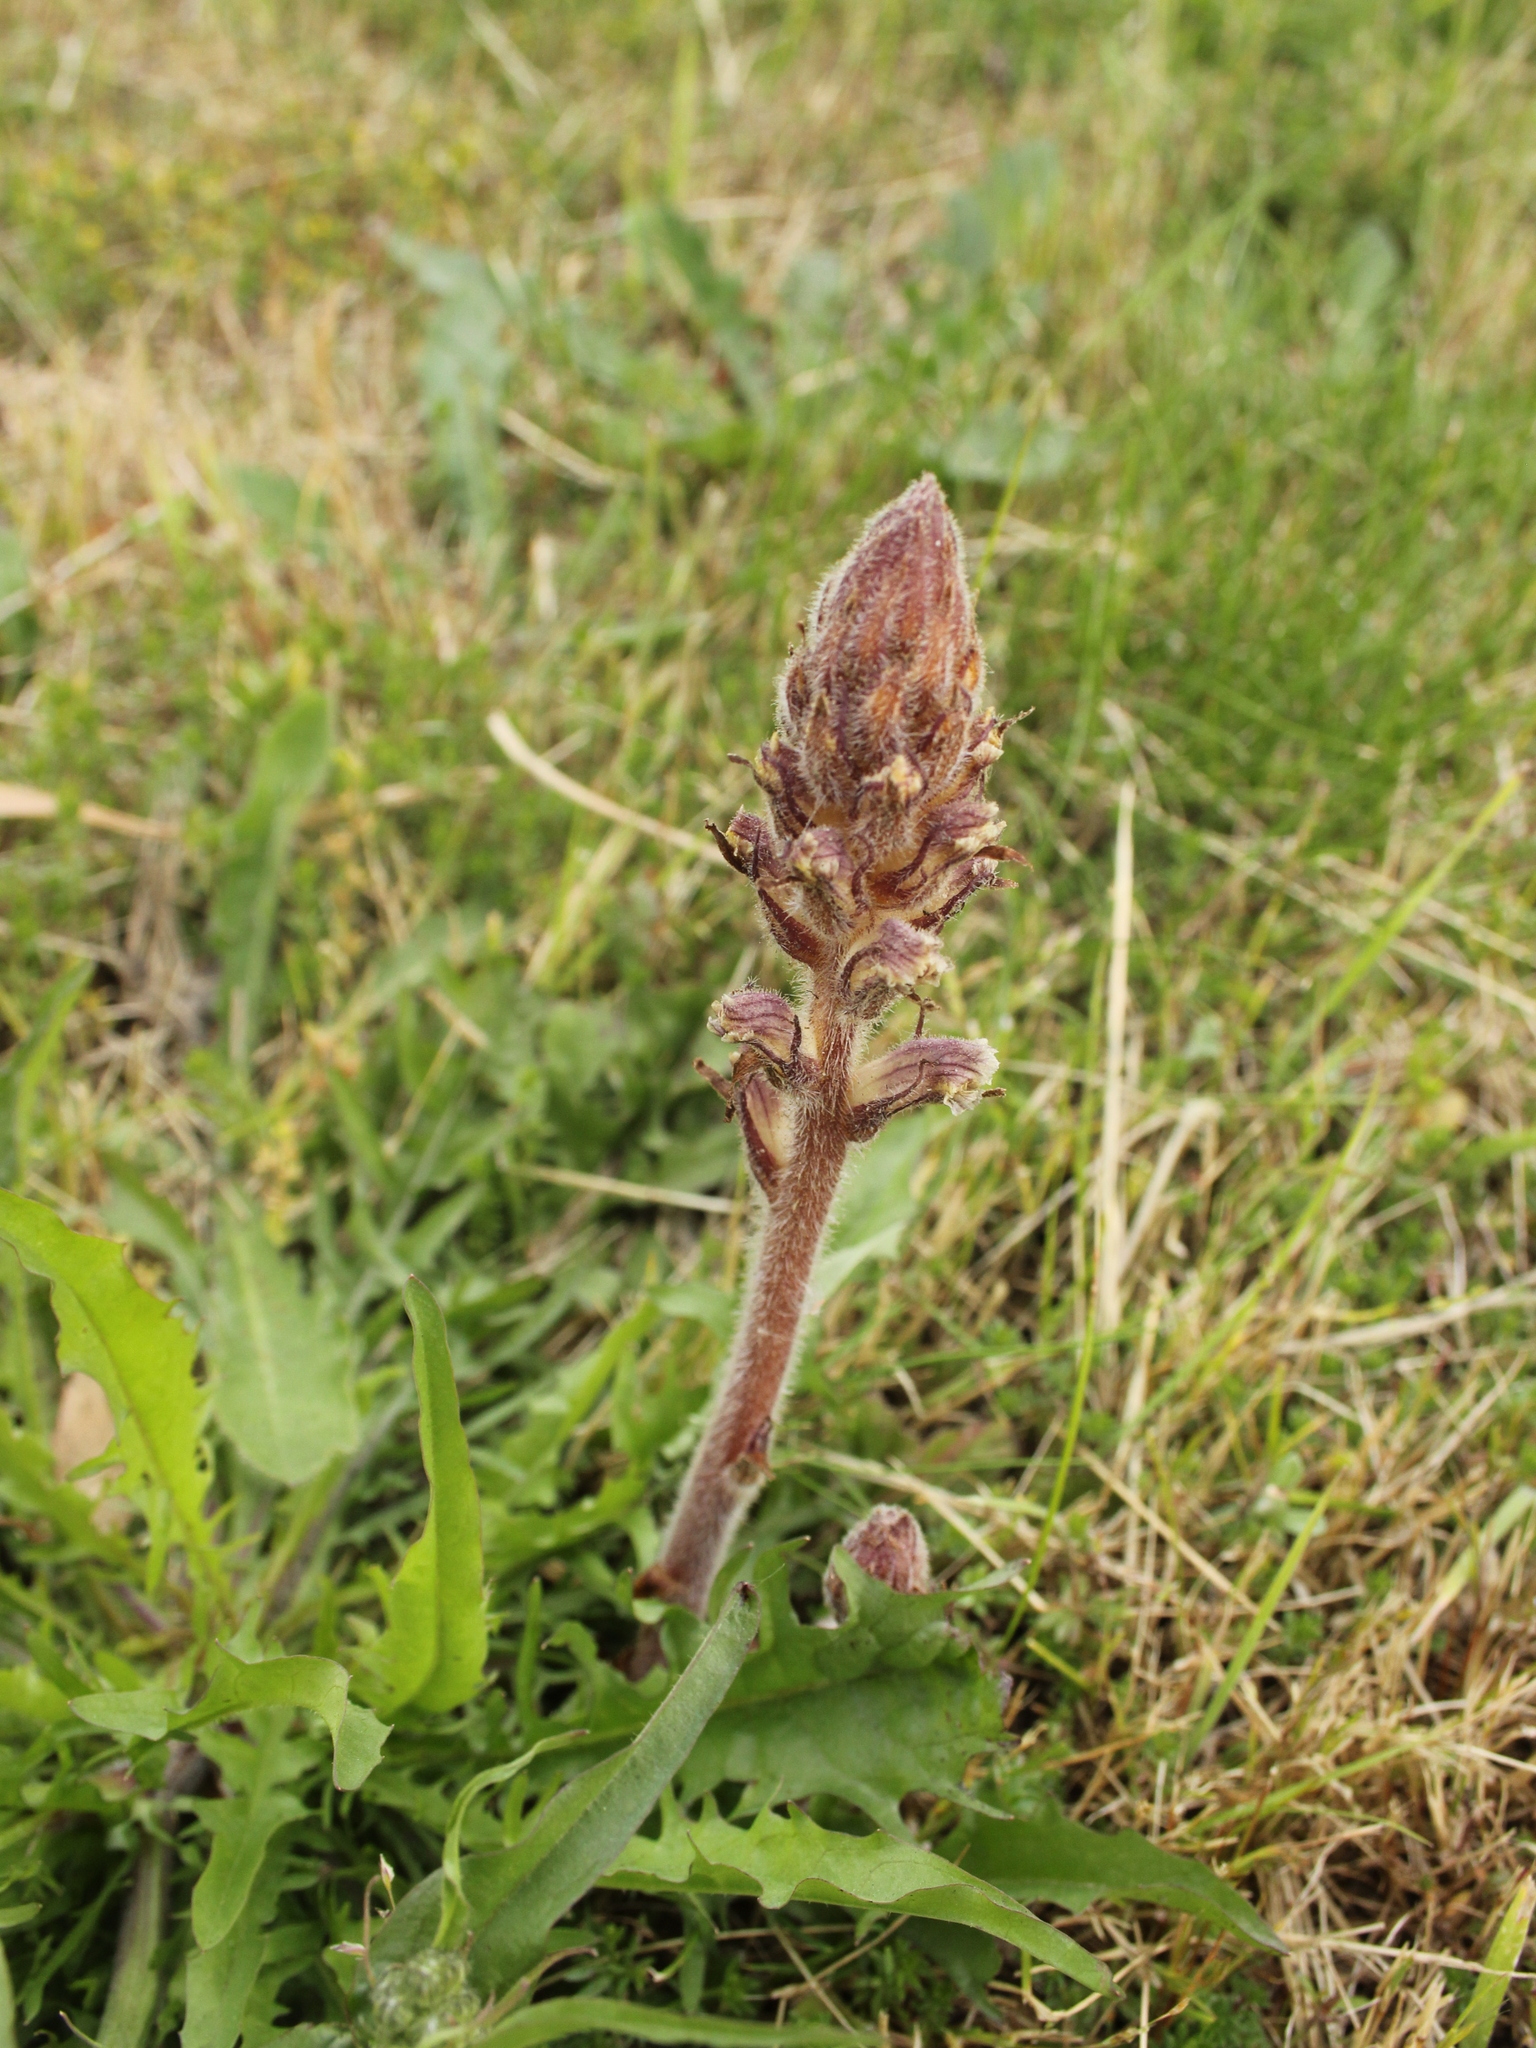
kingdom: Plantae
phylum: Tracheophyta
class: Magnoliopsida
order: Lamiales
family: Orobanchaceae
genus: Orobanche
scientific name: Orobanche minor
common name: Common broomrape
